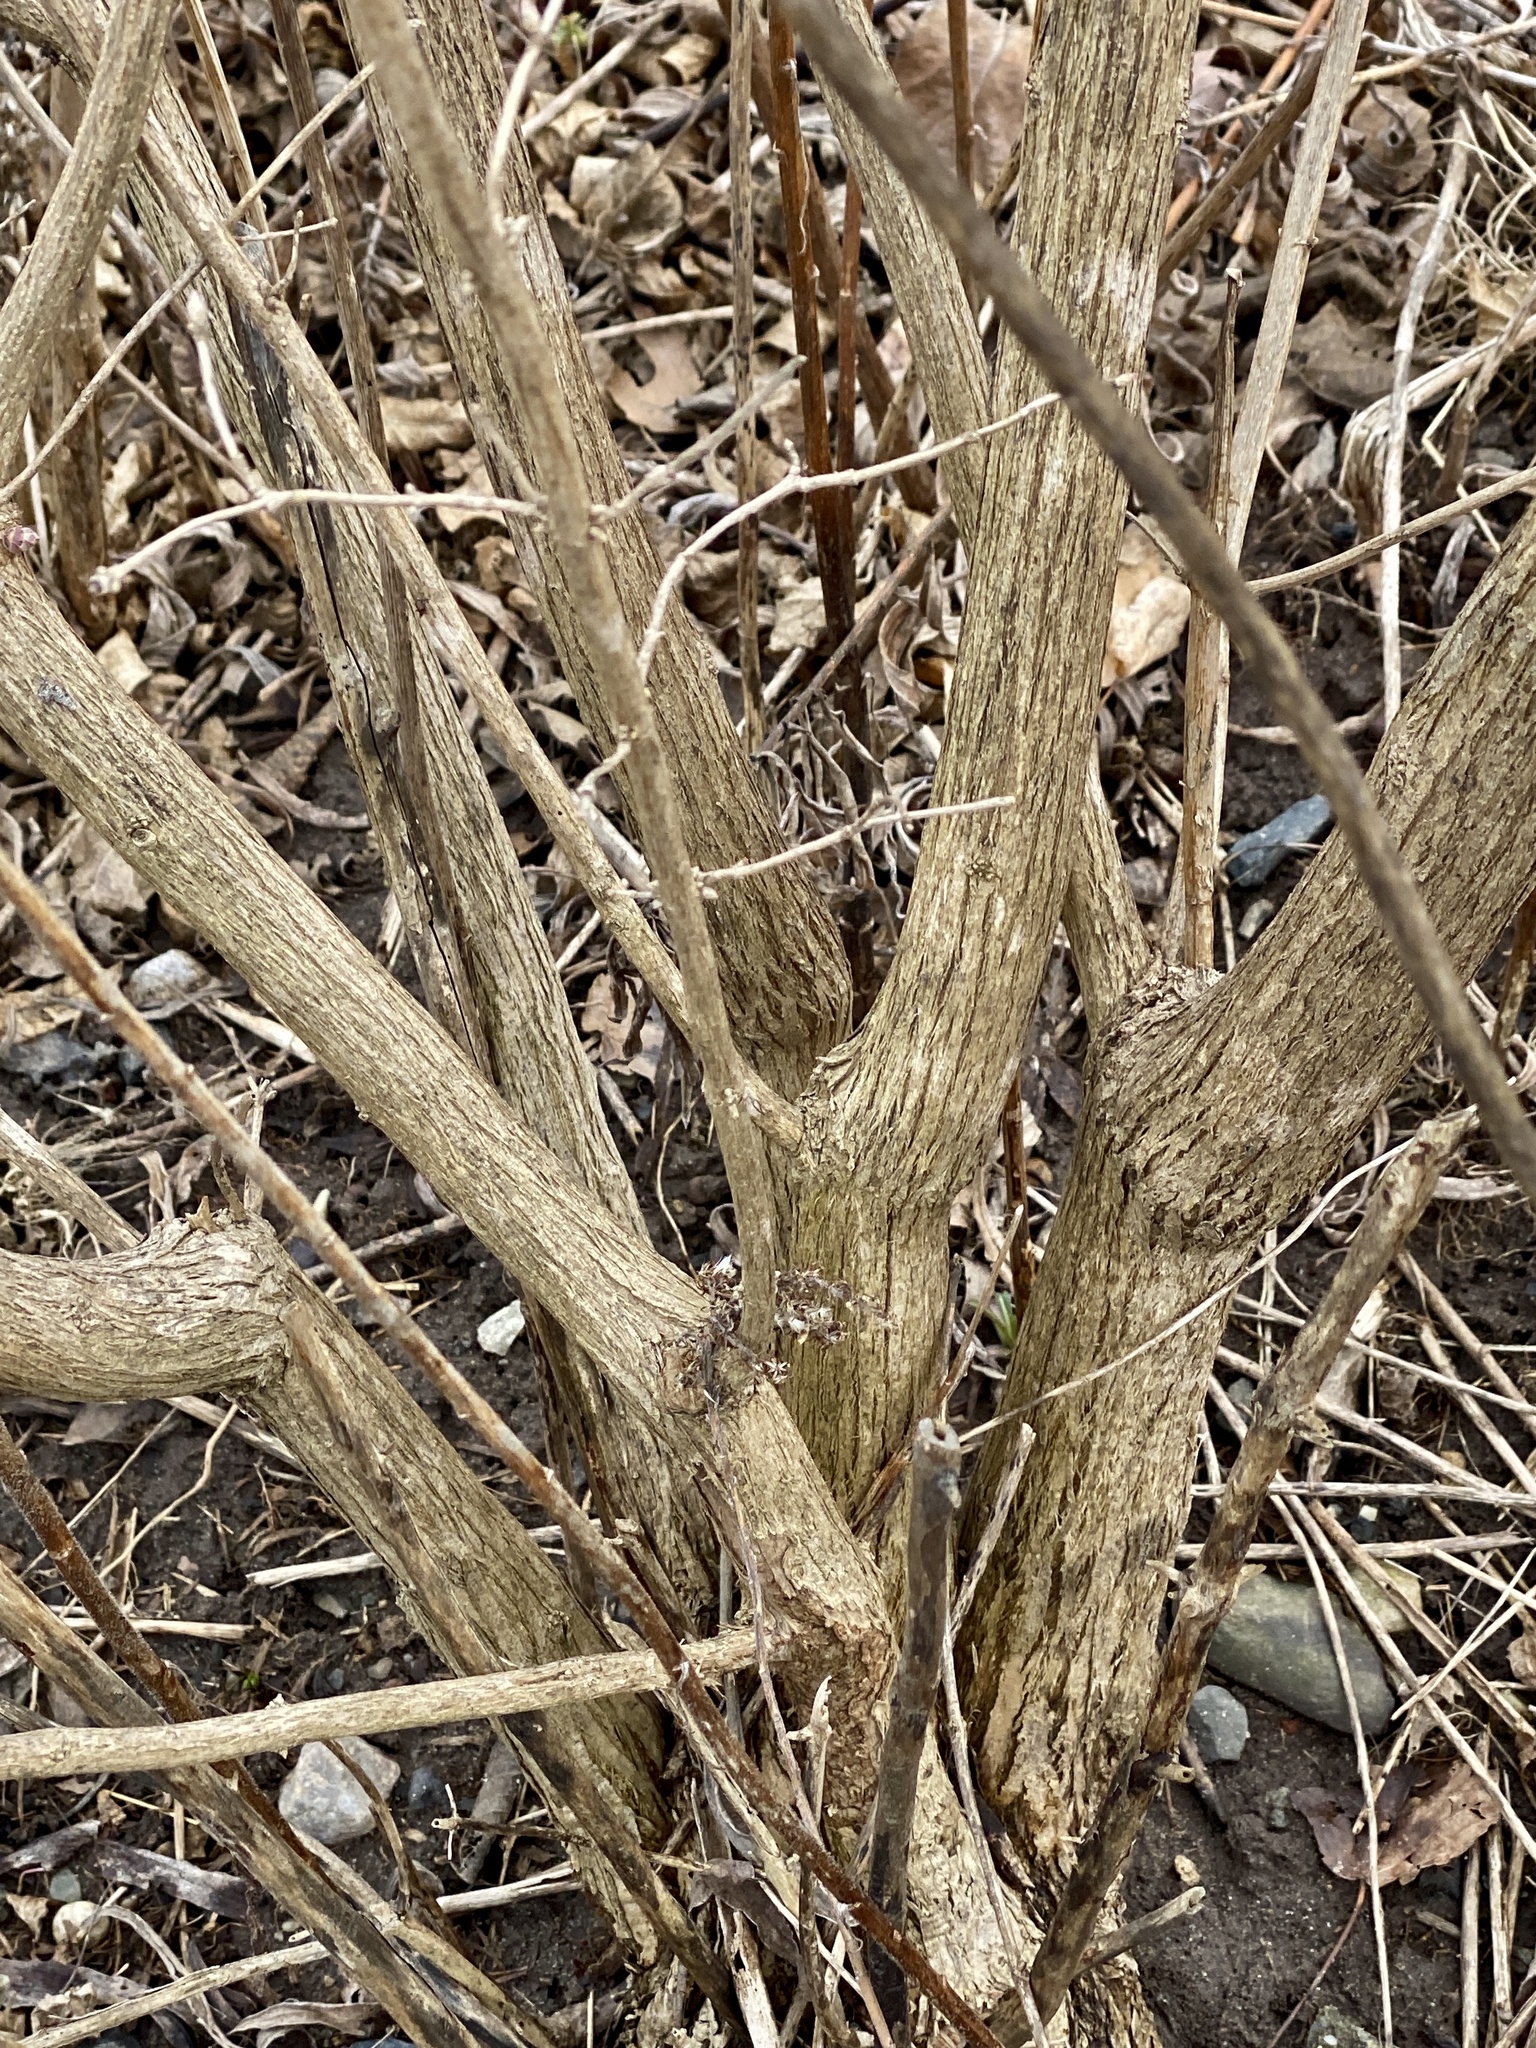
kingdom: Plantae
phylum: Tracheophyta
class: Magnoliopsida
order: Dipsacales
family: Caprifoliaceae
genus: Lonicera
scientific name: Lonicera
